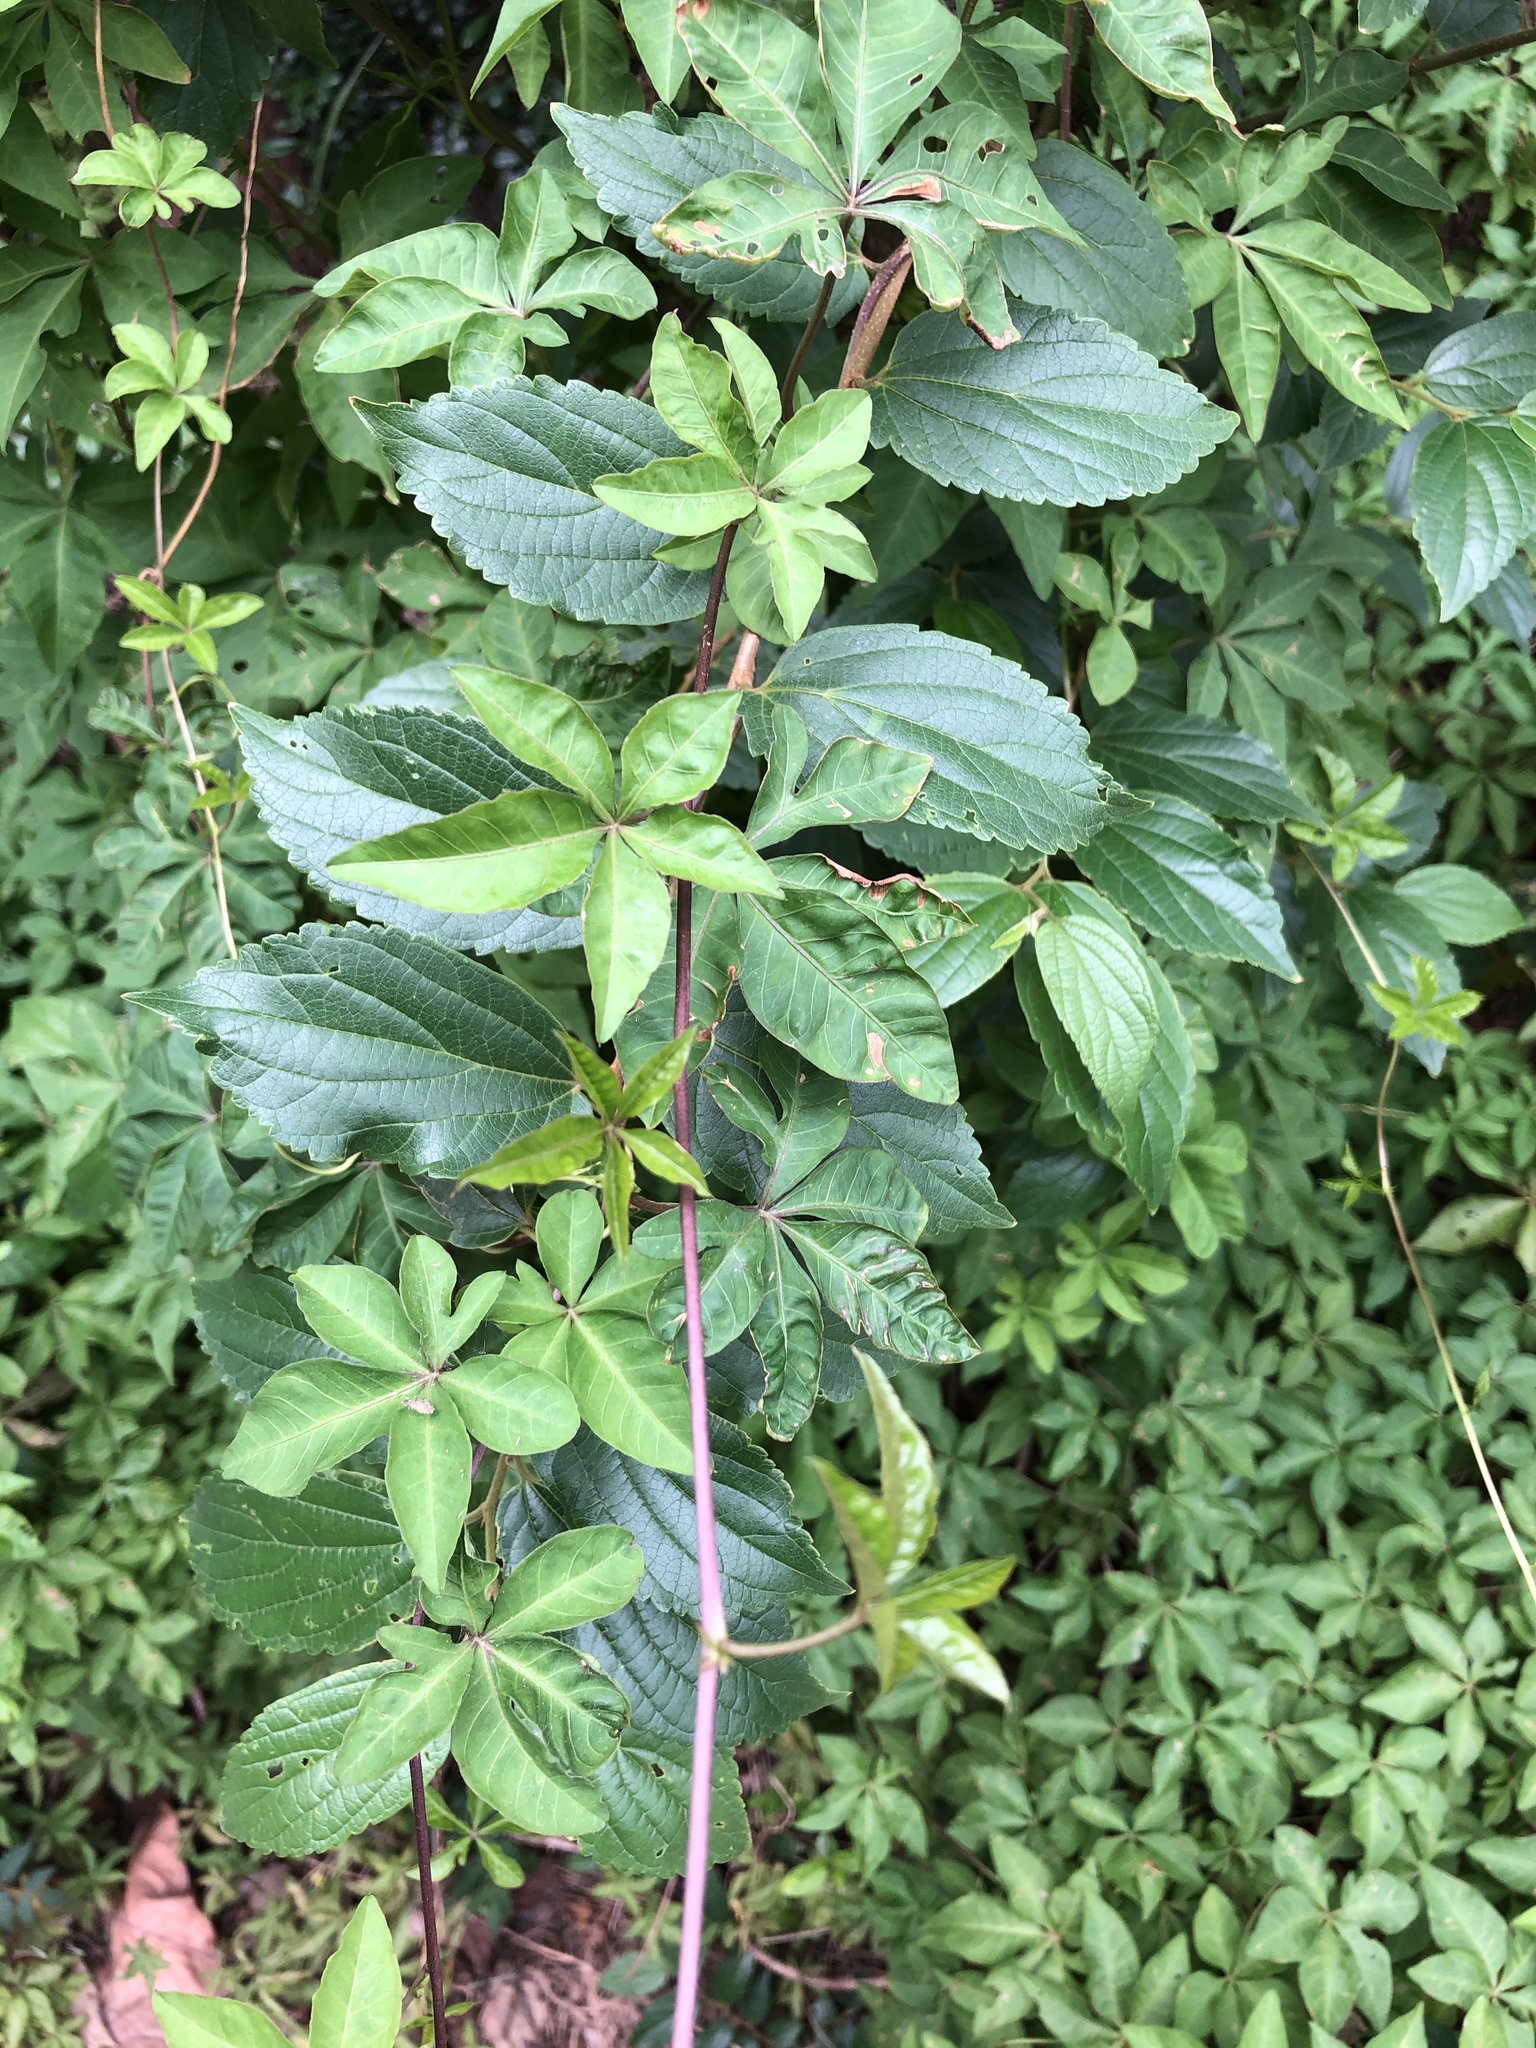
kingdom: Plantae
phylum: Tracheophyta
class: Magnoliopsida
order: Solanales
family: Convolvulaceae
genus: Ipomoea
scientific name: Ipomoea cairica
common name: Mile a minute vine
